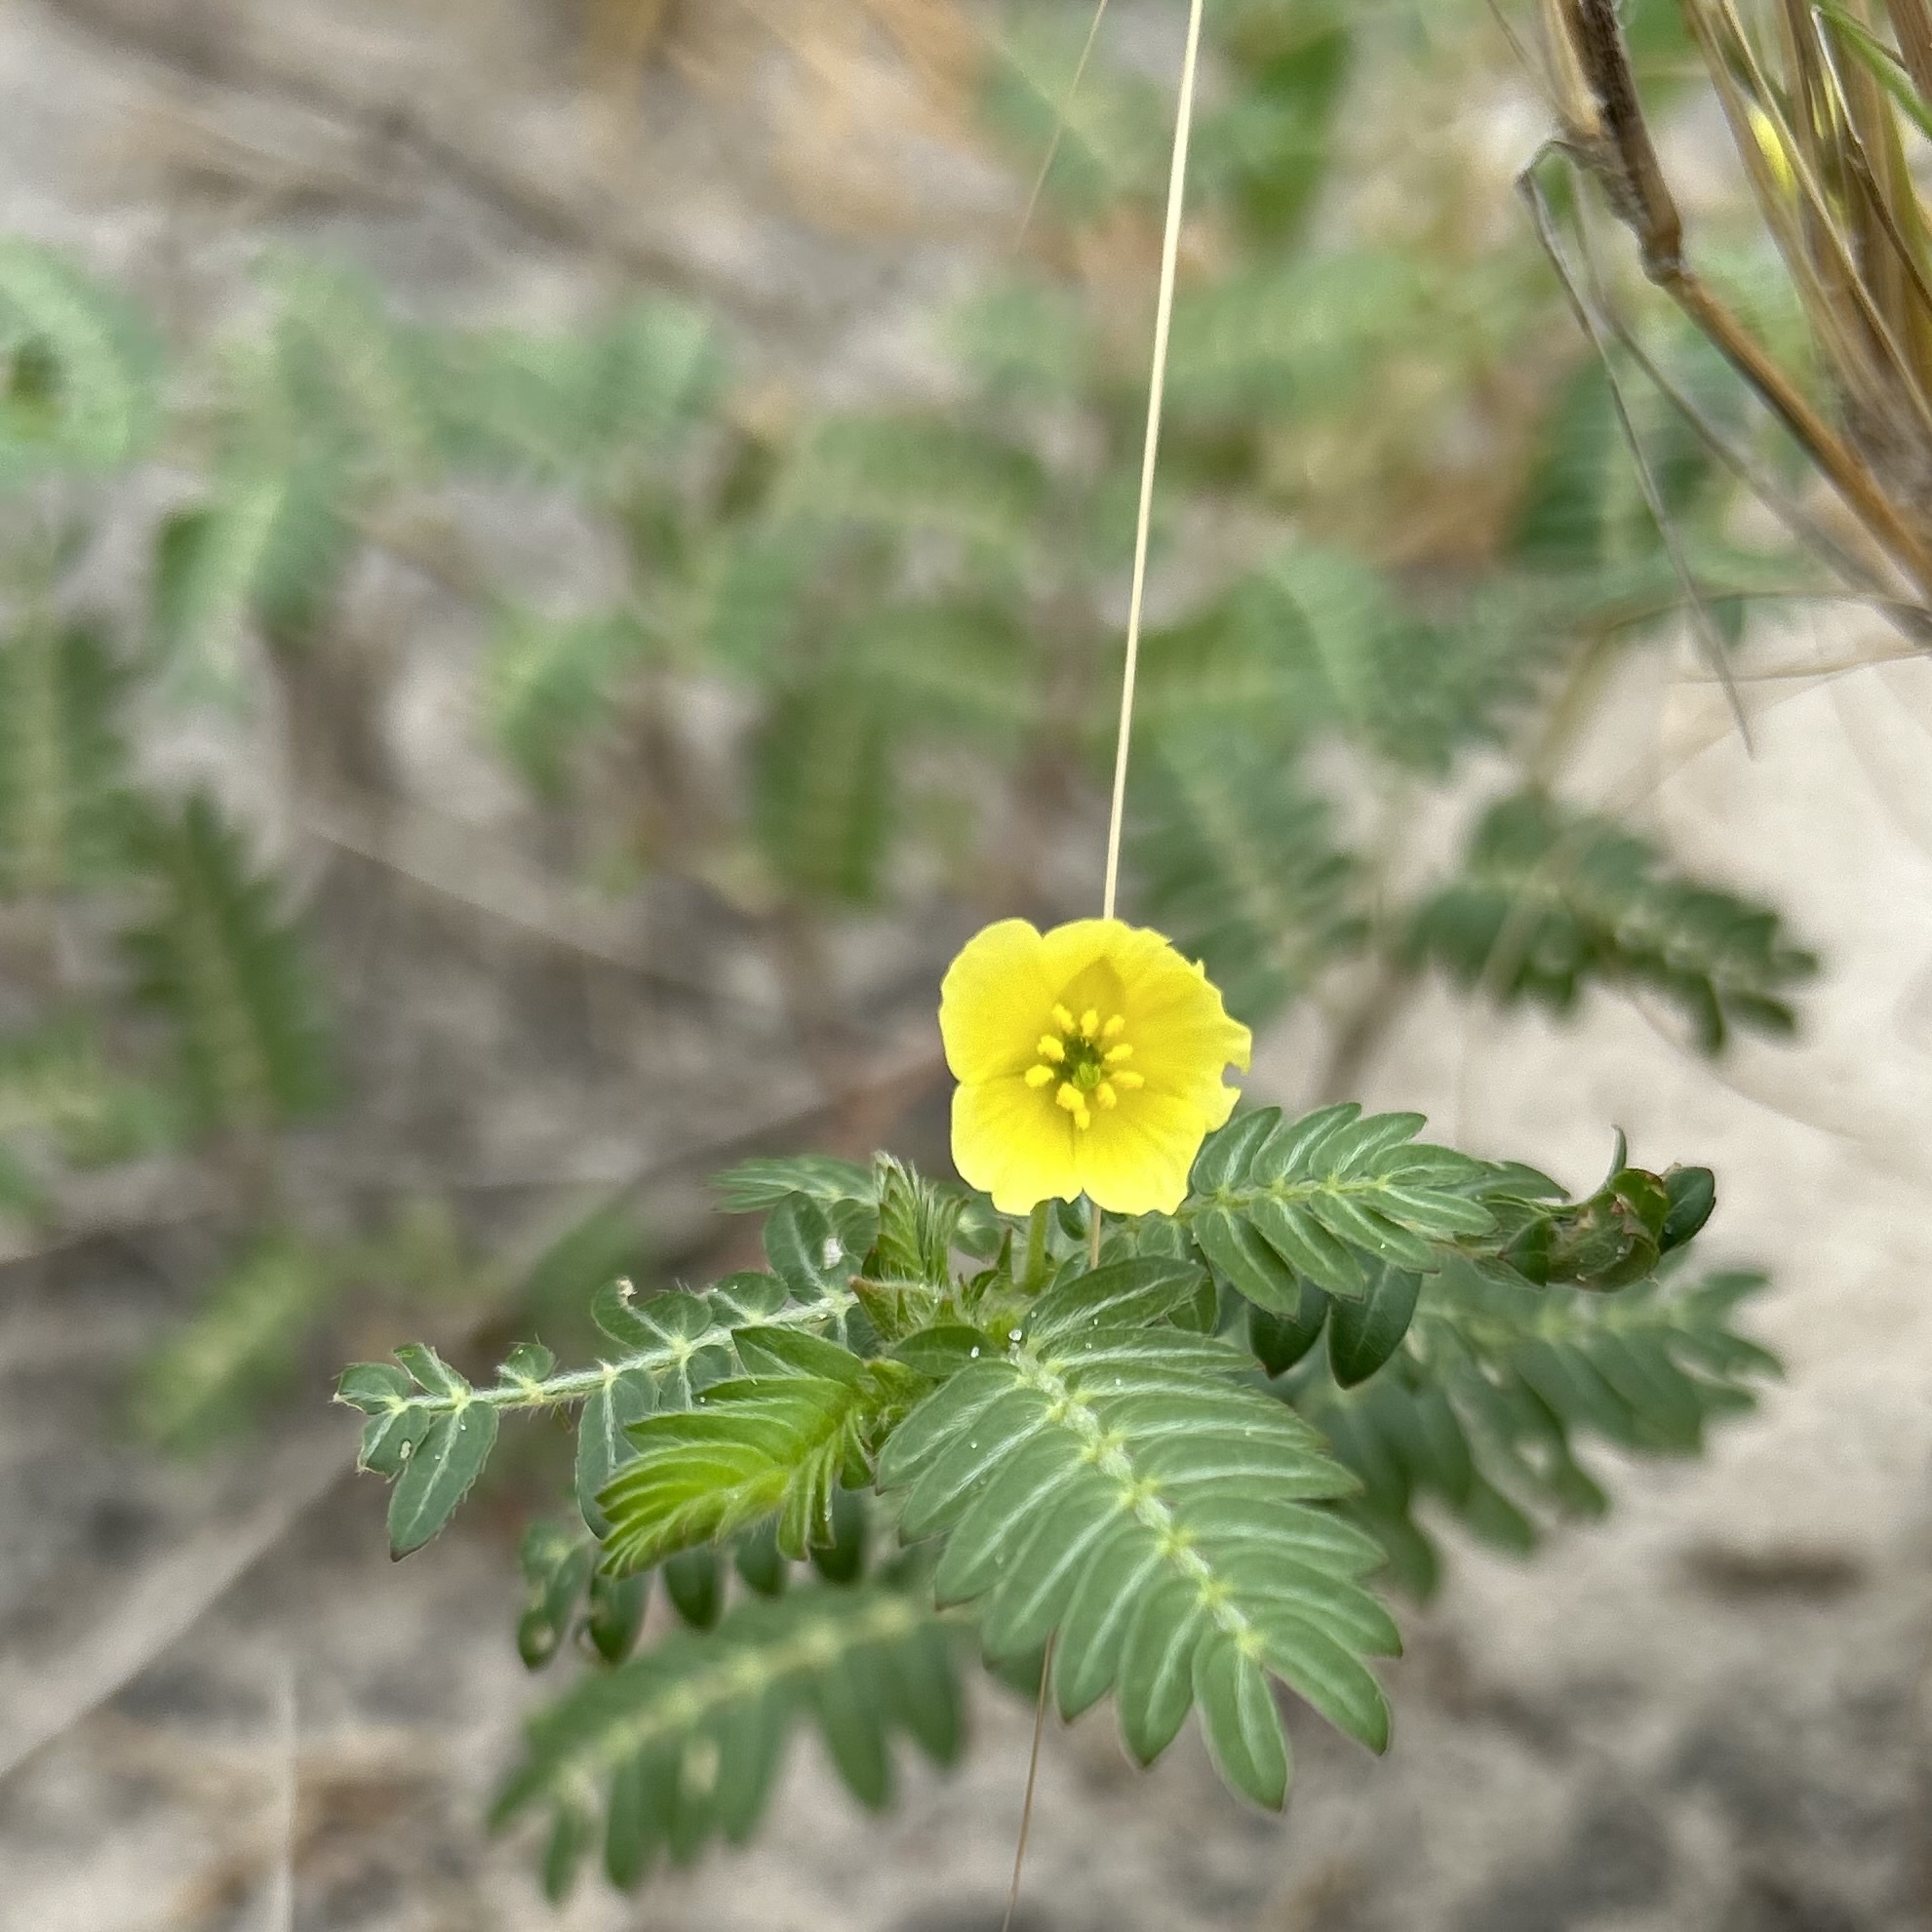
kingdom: Plantae
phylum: Tracheophyta
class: Magnoliopsida
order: Zygophyllales
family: Zygophyllaceae
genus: Tribulus
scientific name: Tribulus terrestris
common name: Puncturevine
